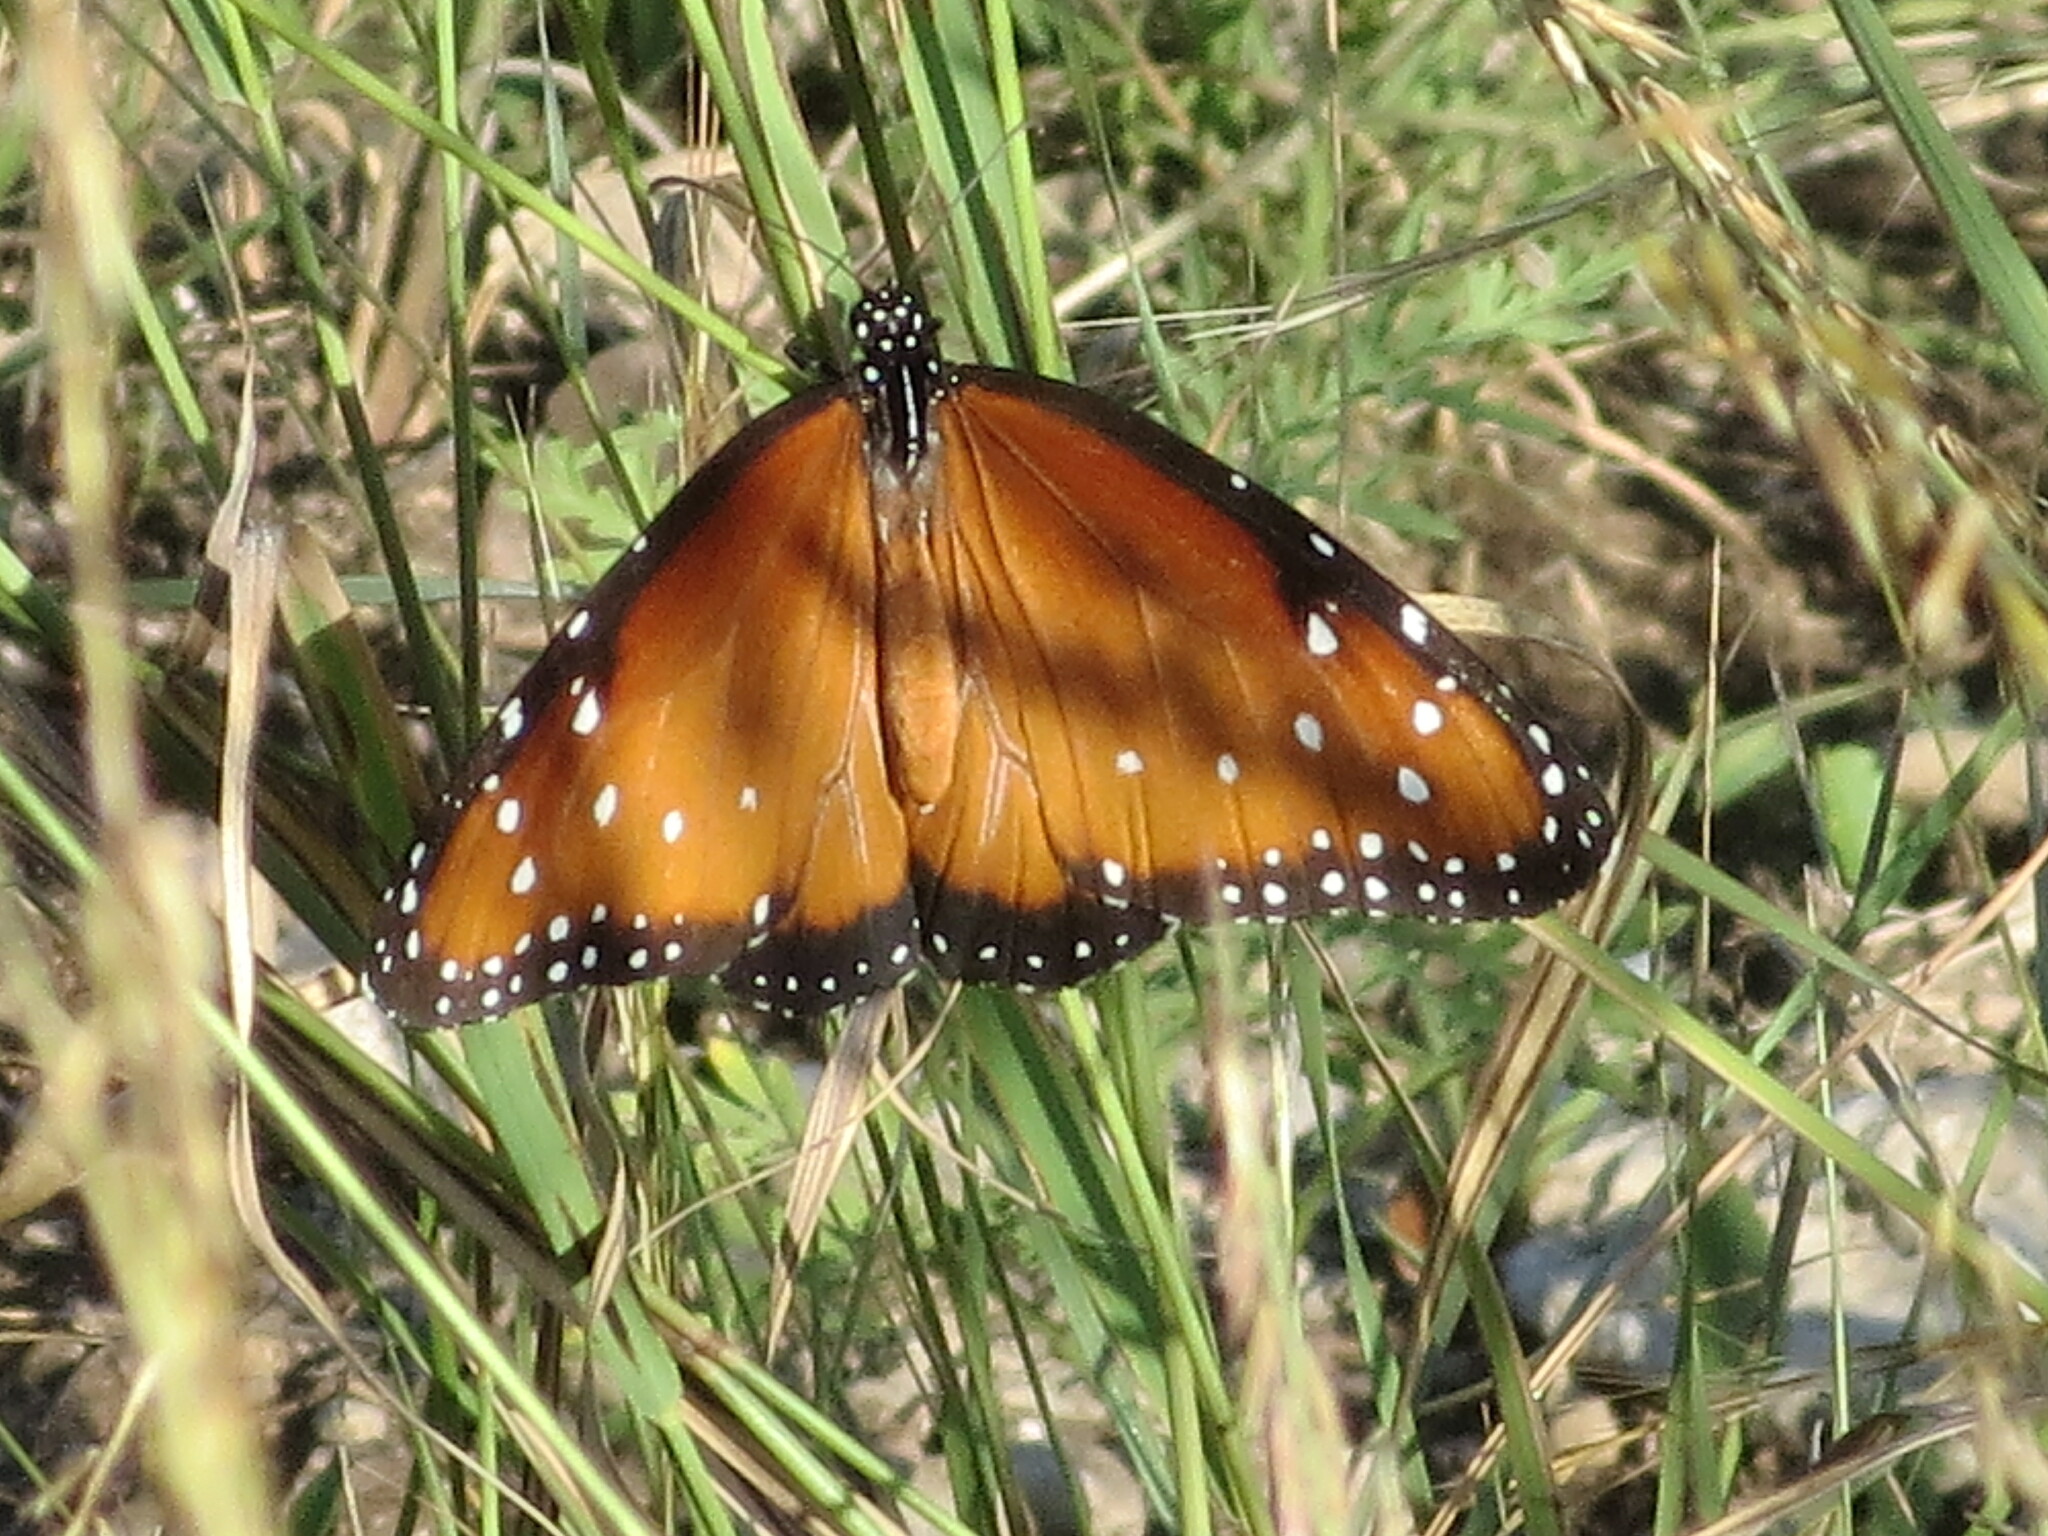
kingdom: Animalia
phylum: Arthropoda
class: Insecta
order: Lepidoptera
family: Nymphalidae
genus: Danaus
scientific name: Danaus gilippus
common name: Queen
